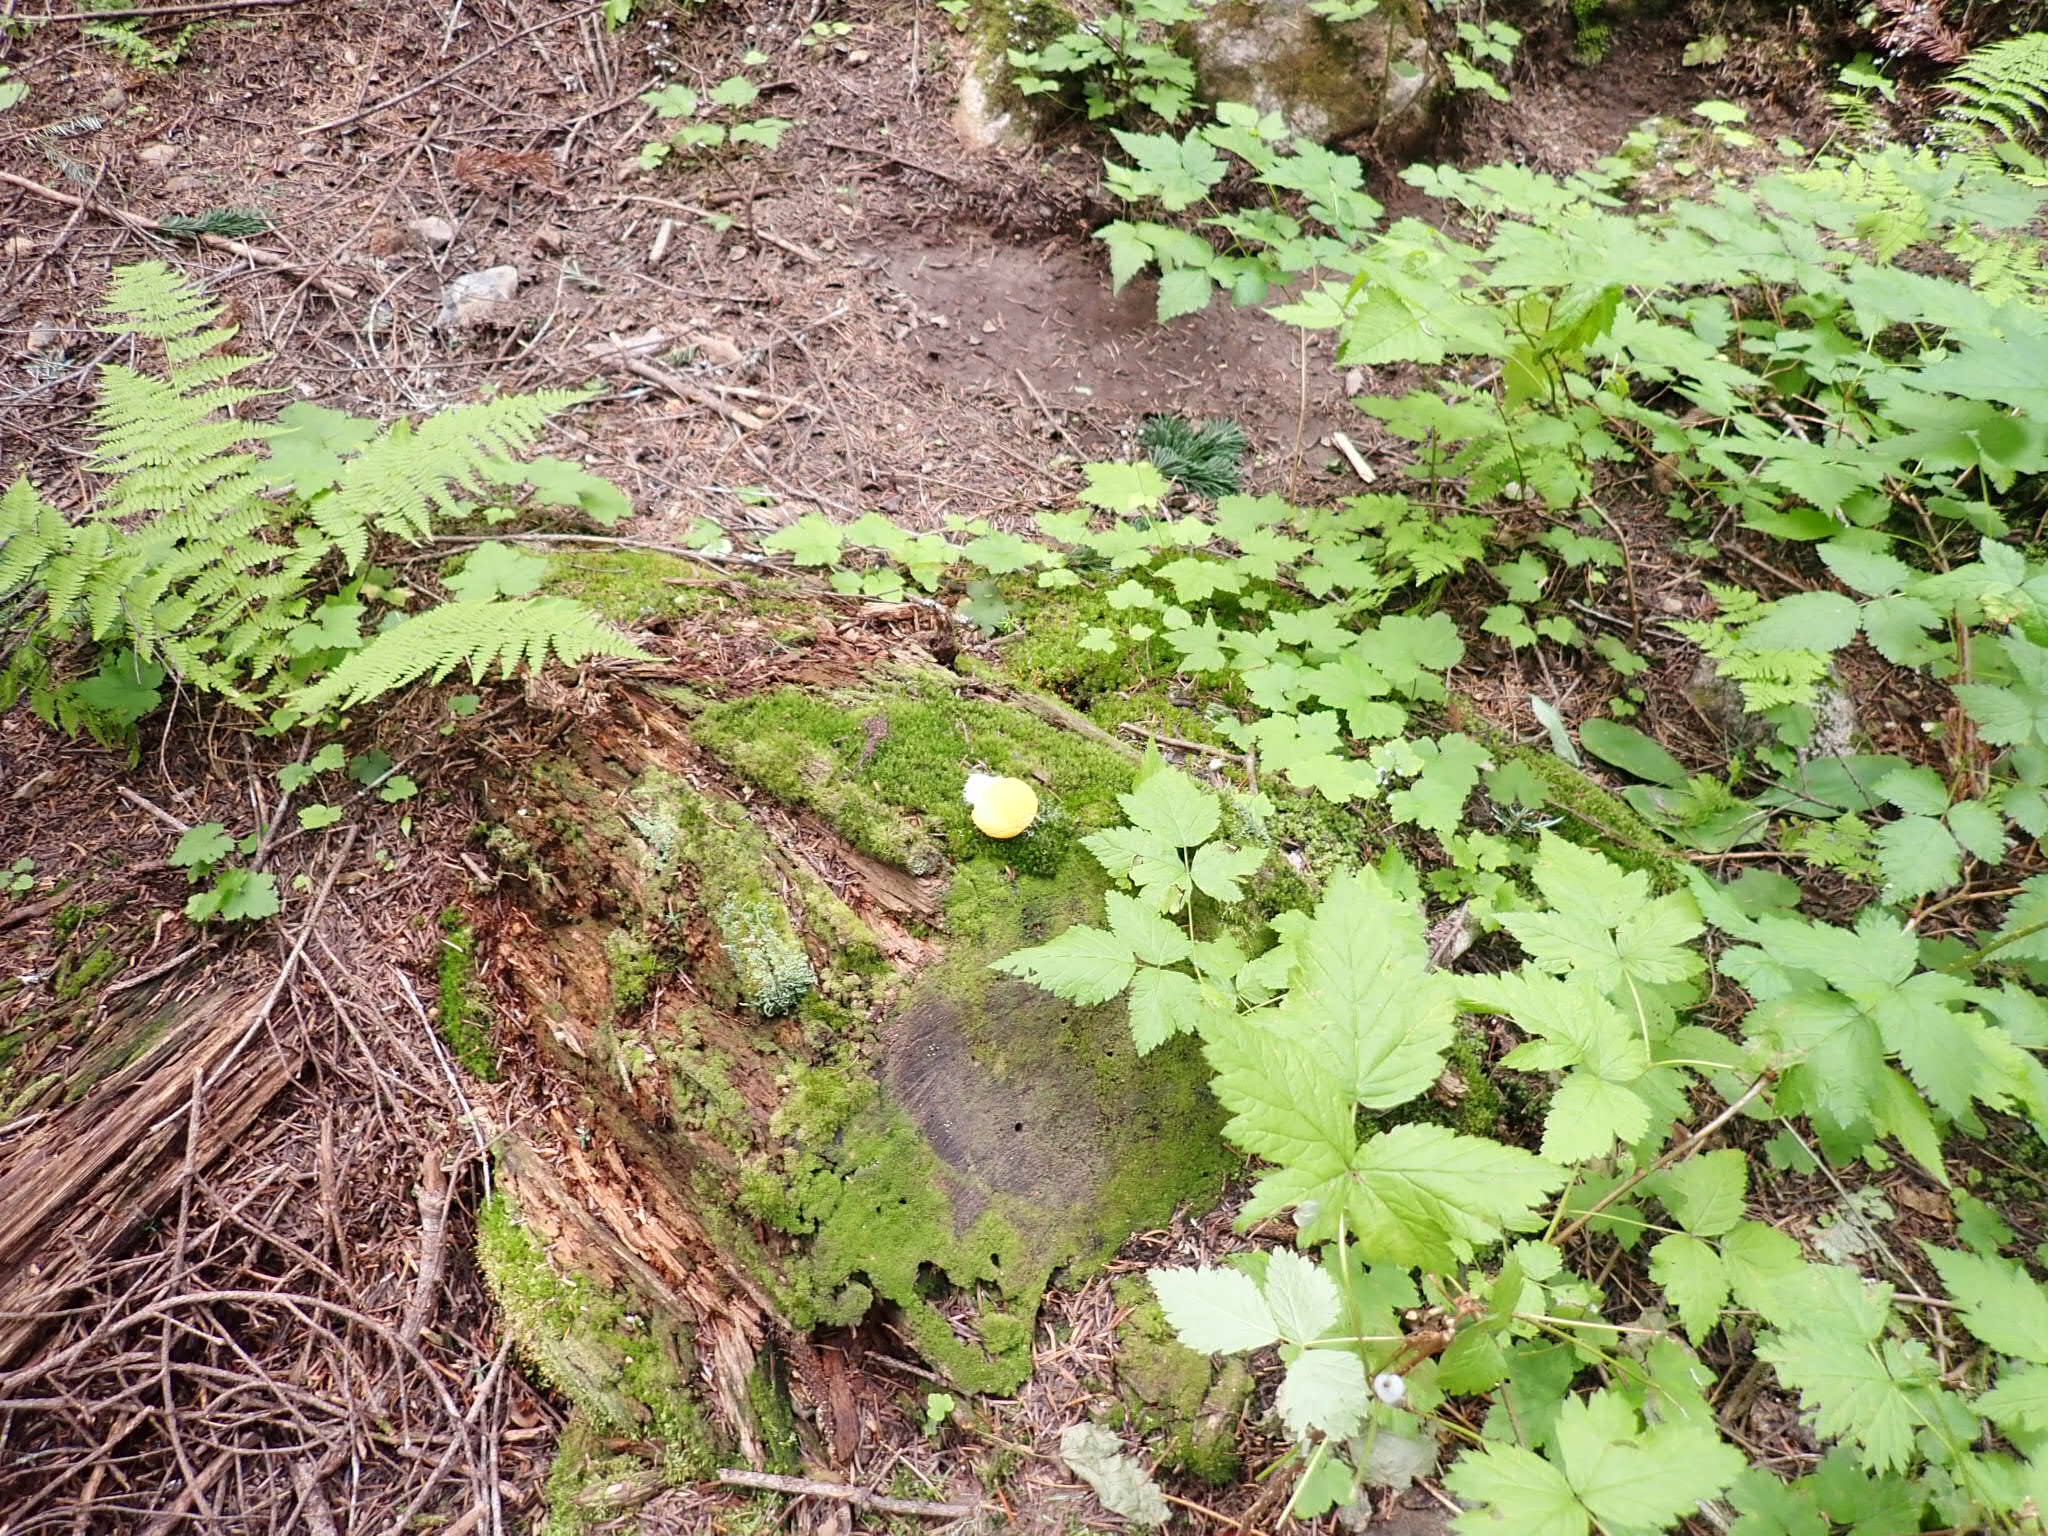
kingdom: Protozoa
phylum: Mycetozoa
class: Myxomycetes
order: Physarales
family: Physaraceae
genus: Fuligo
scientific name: Fuligo septica
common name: Dog vomit slime mold
